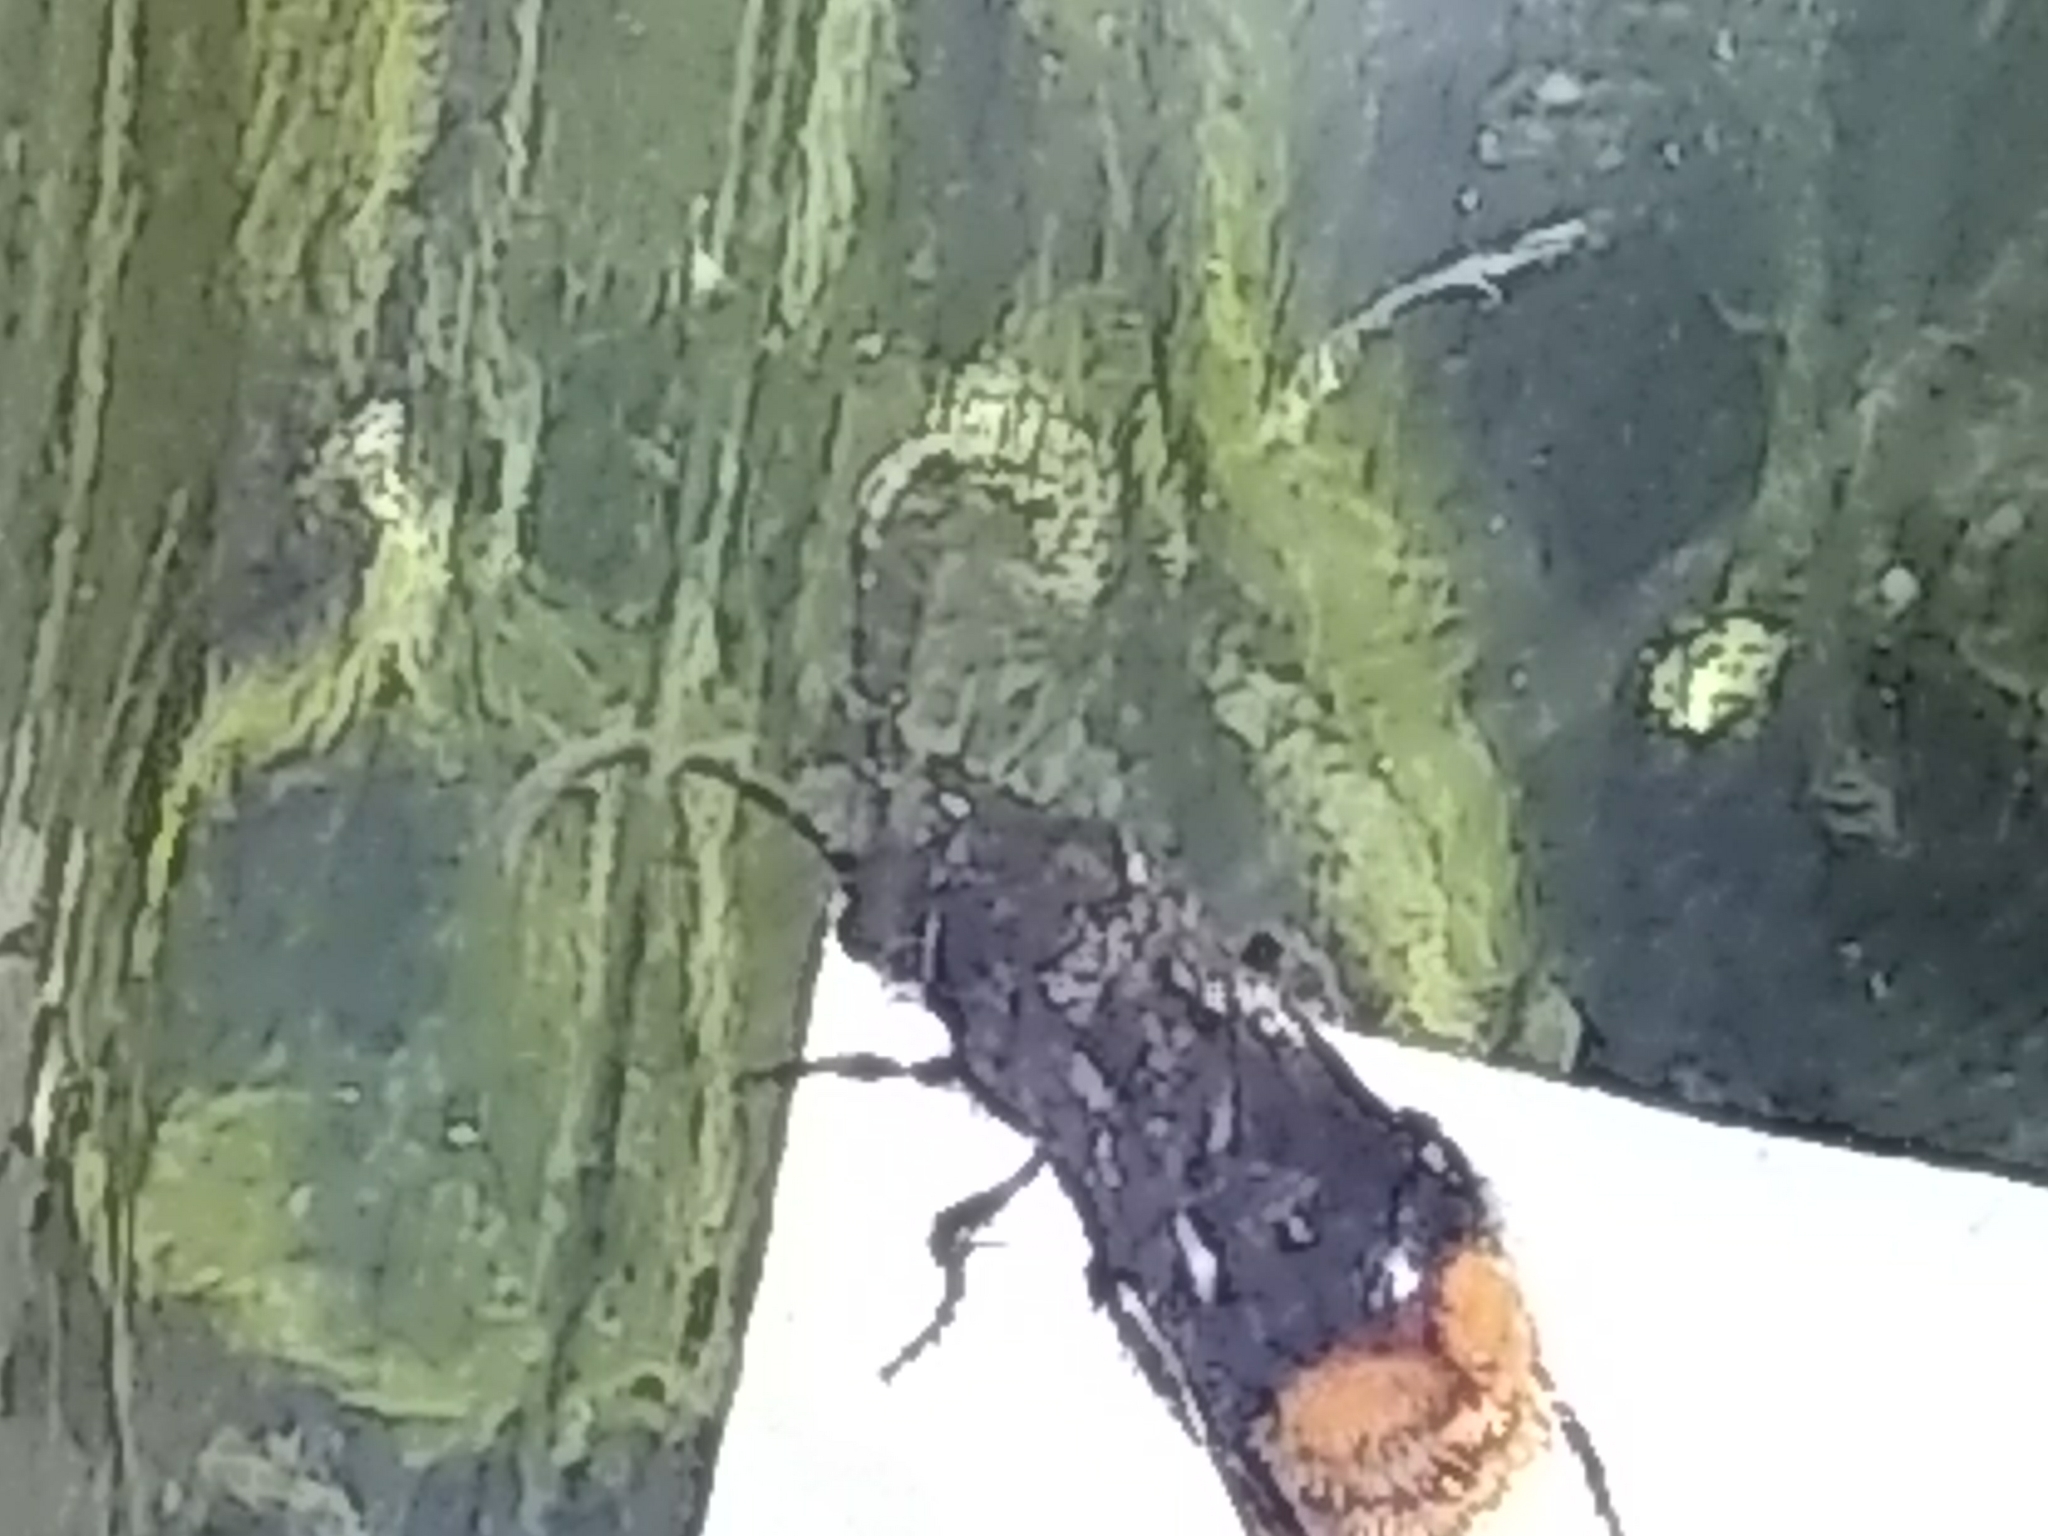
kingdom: Animalia
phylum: Arthropoda
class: Insecta
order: Hymenoptera
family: Mutillidae
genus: Dasymutilla
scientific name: Dasymutilla
